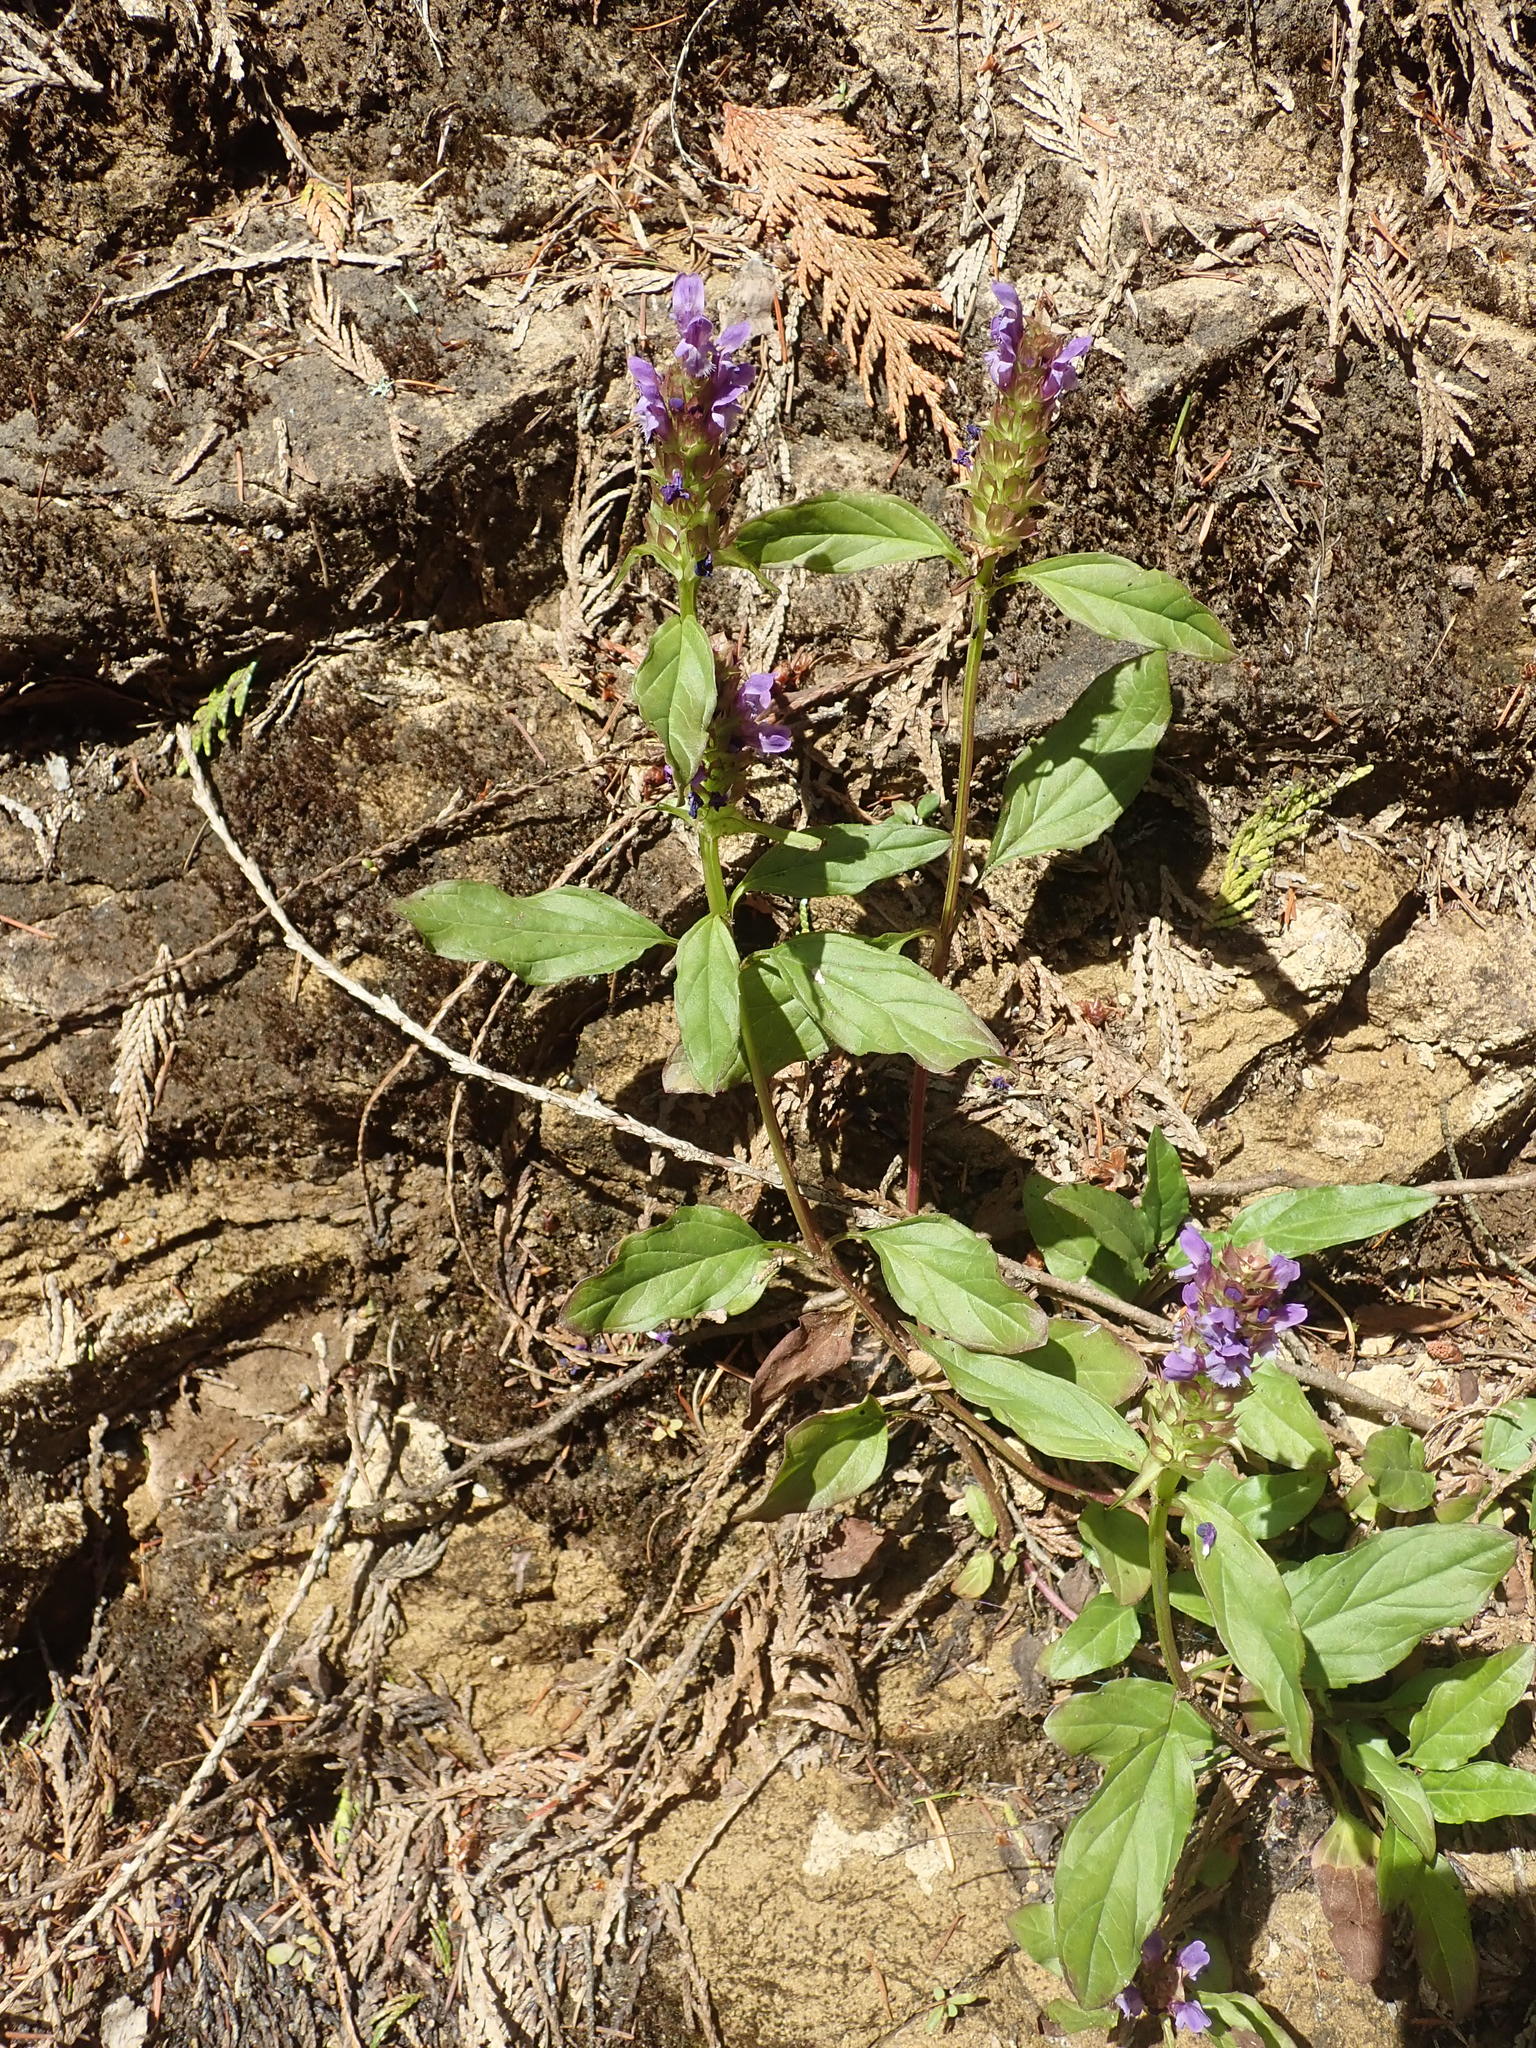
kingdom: Plantae
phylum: Tracheophyta
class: Magnoliopsida
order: Lamiales
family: Lamiaceae
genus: Prunella
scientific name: Prunella vulgaris
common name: Heal-all
